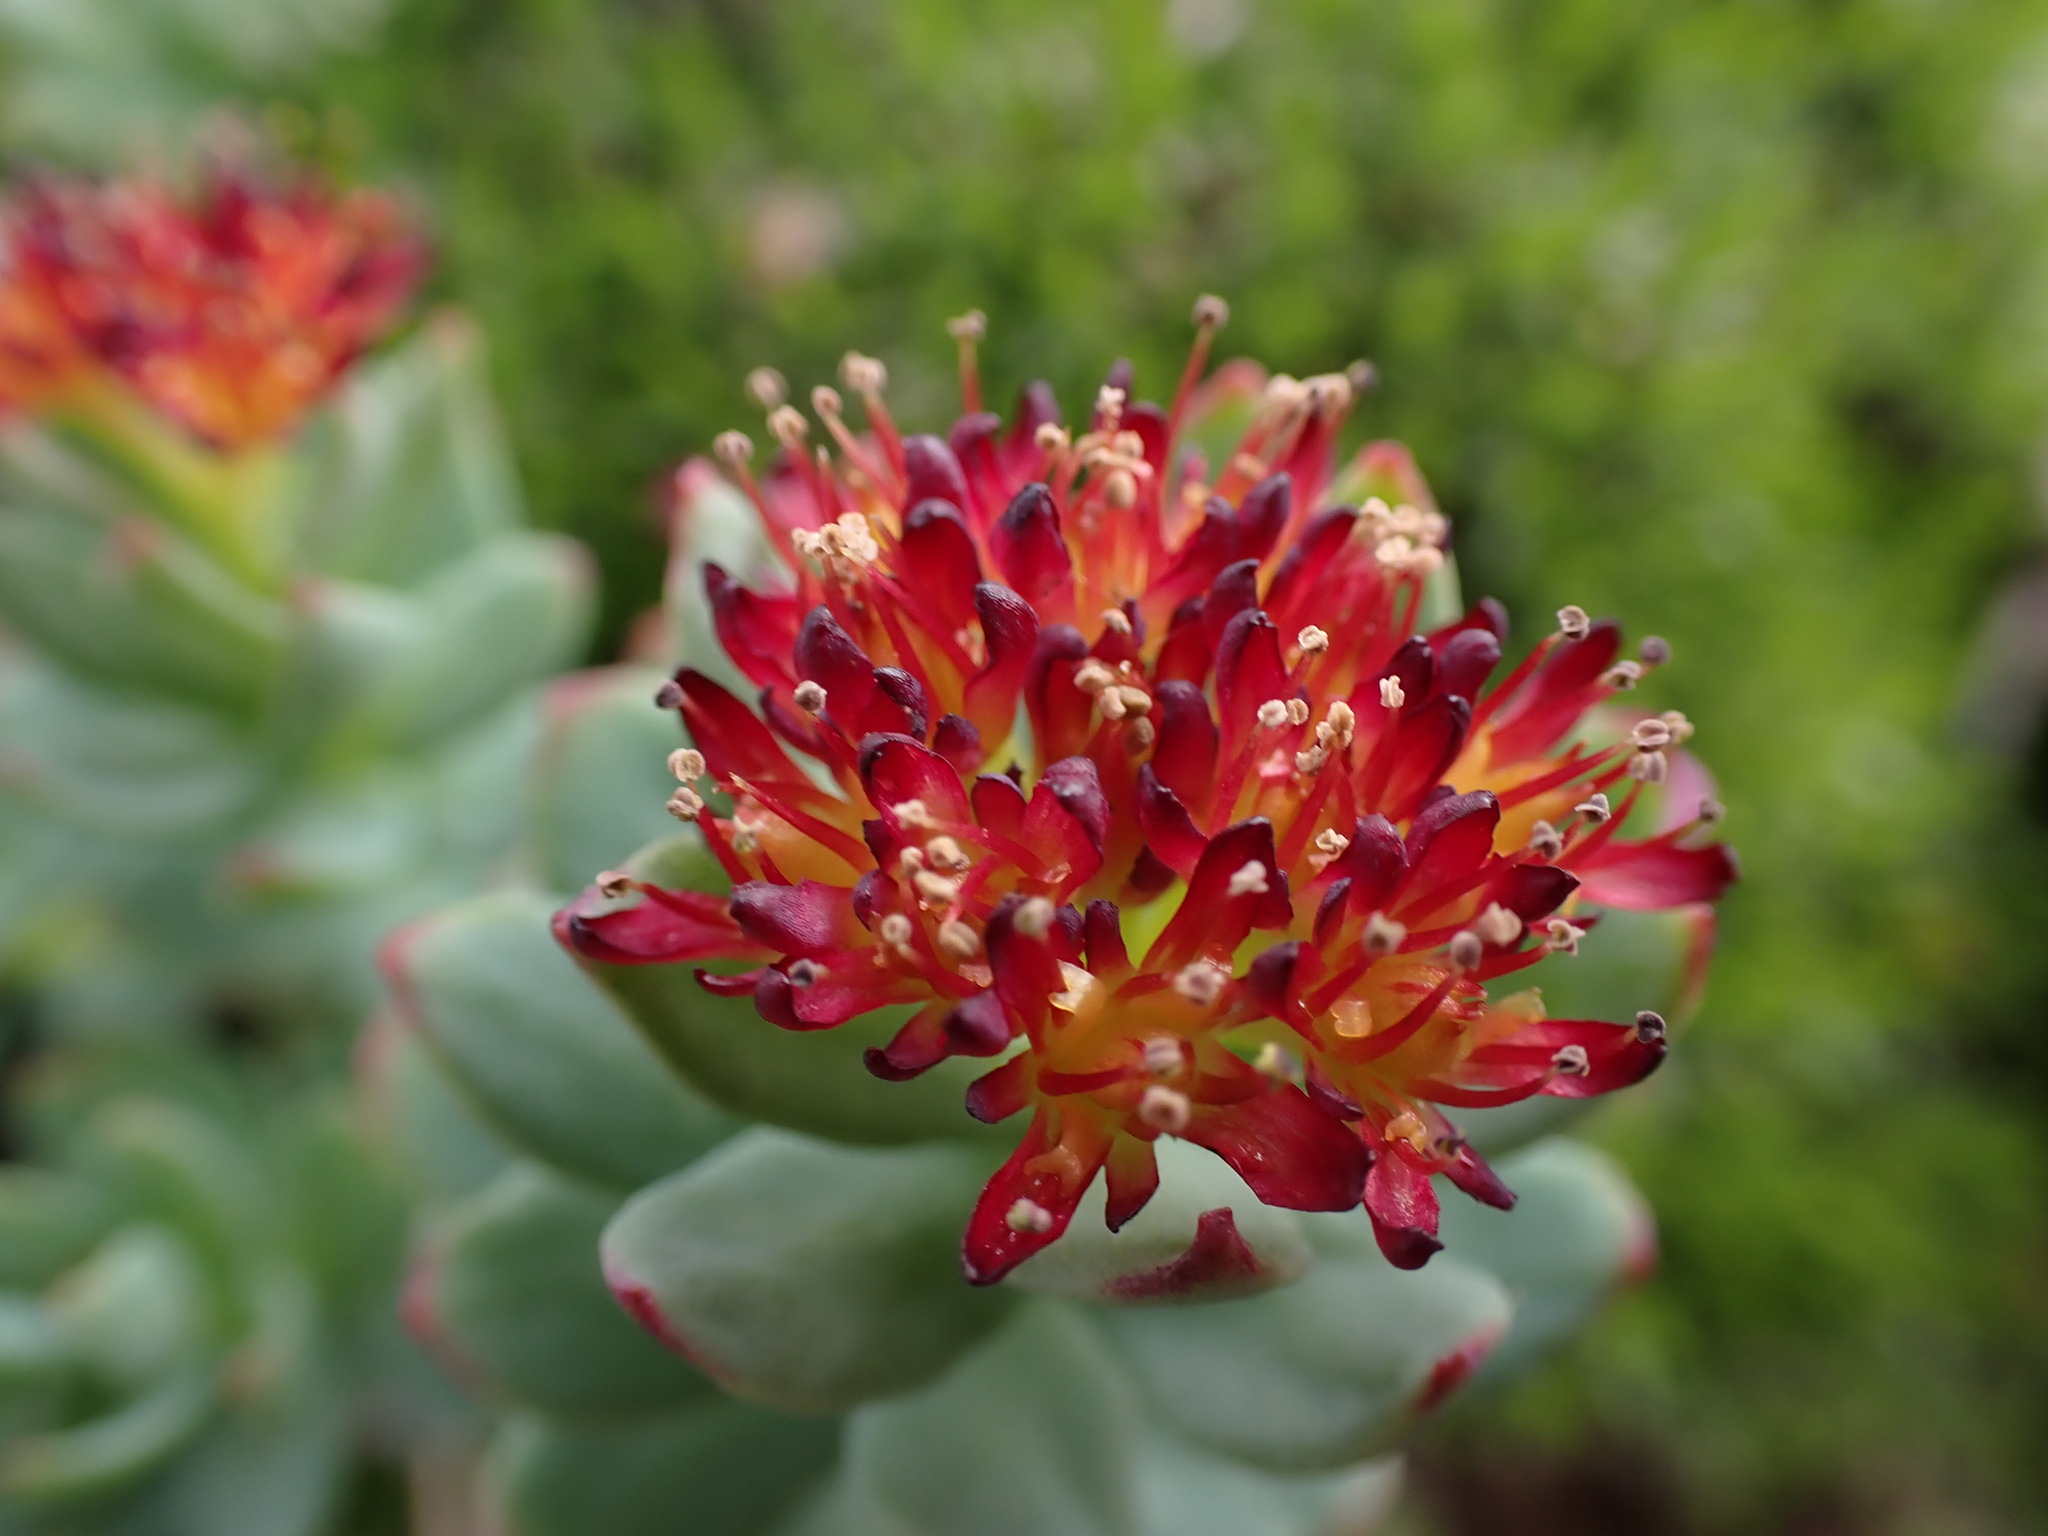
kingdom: Plantae
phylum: Tracheophyta
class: Magnoliopsida
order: Saxifragales
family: Crassulaceae
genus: Rhodiola
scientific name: Rhodiola integrifolia
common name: Western roseroot
